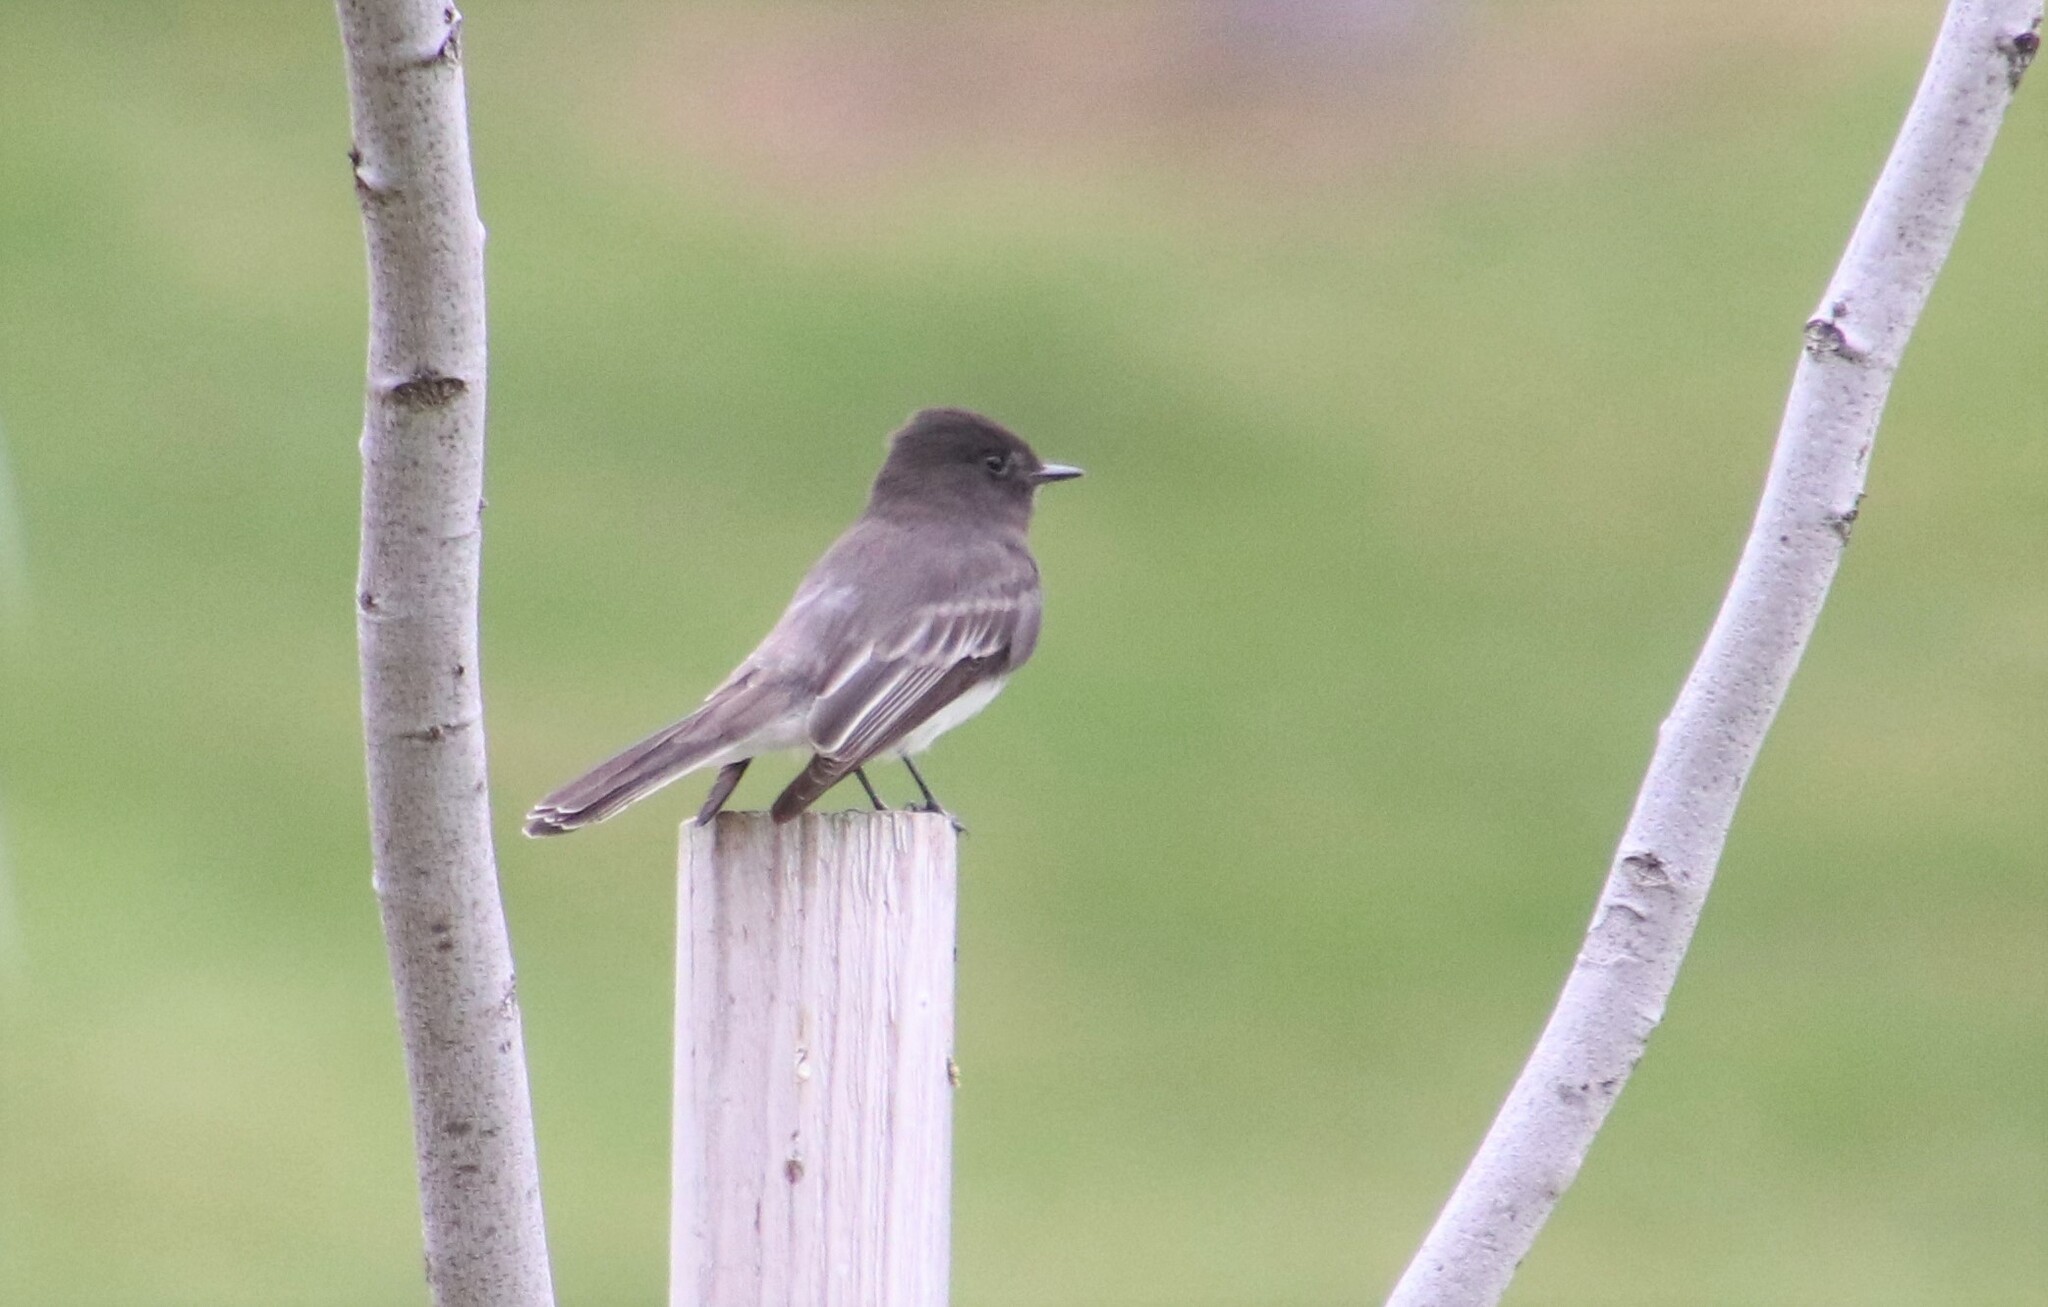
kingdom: Animalia
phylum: Chordata
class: Aves
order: Passeriformes
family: Tyrannidae
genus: Sayornis
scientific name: Sayornis nigricans
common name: Black phoebe
